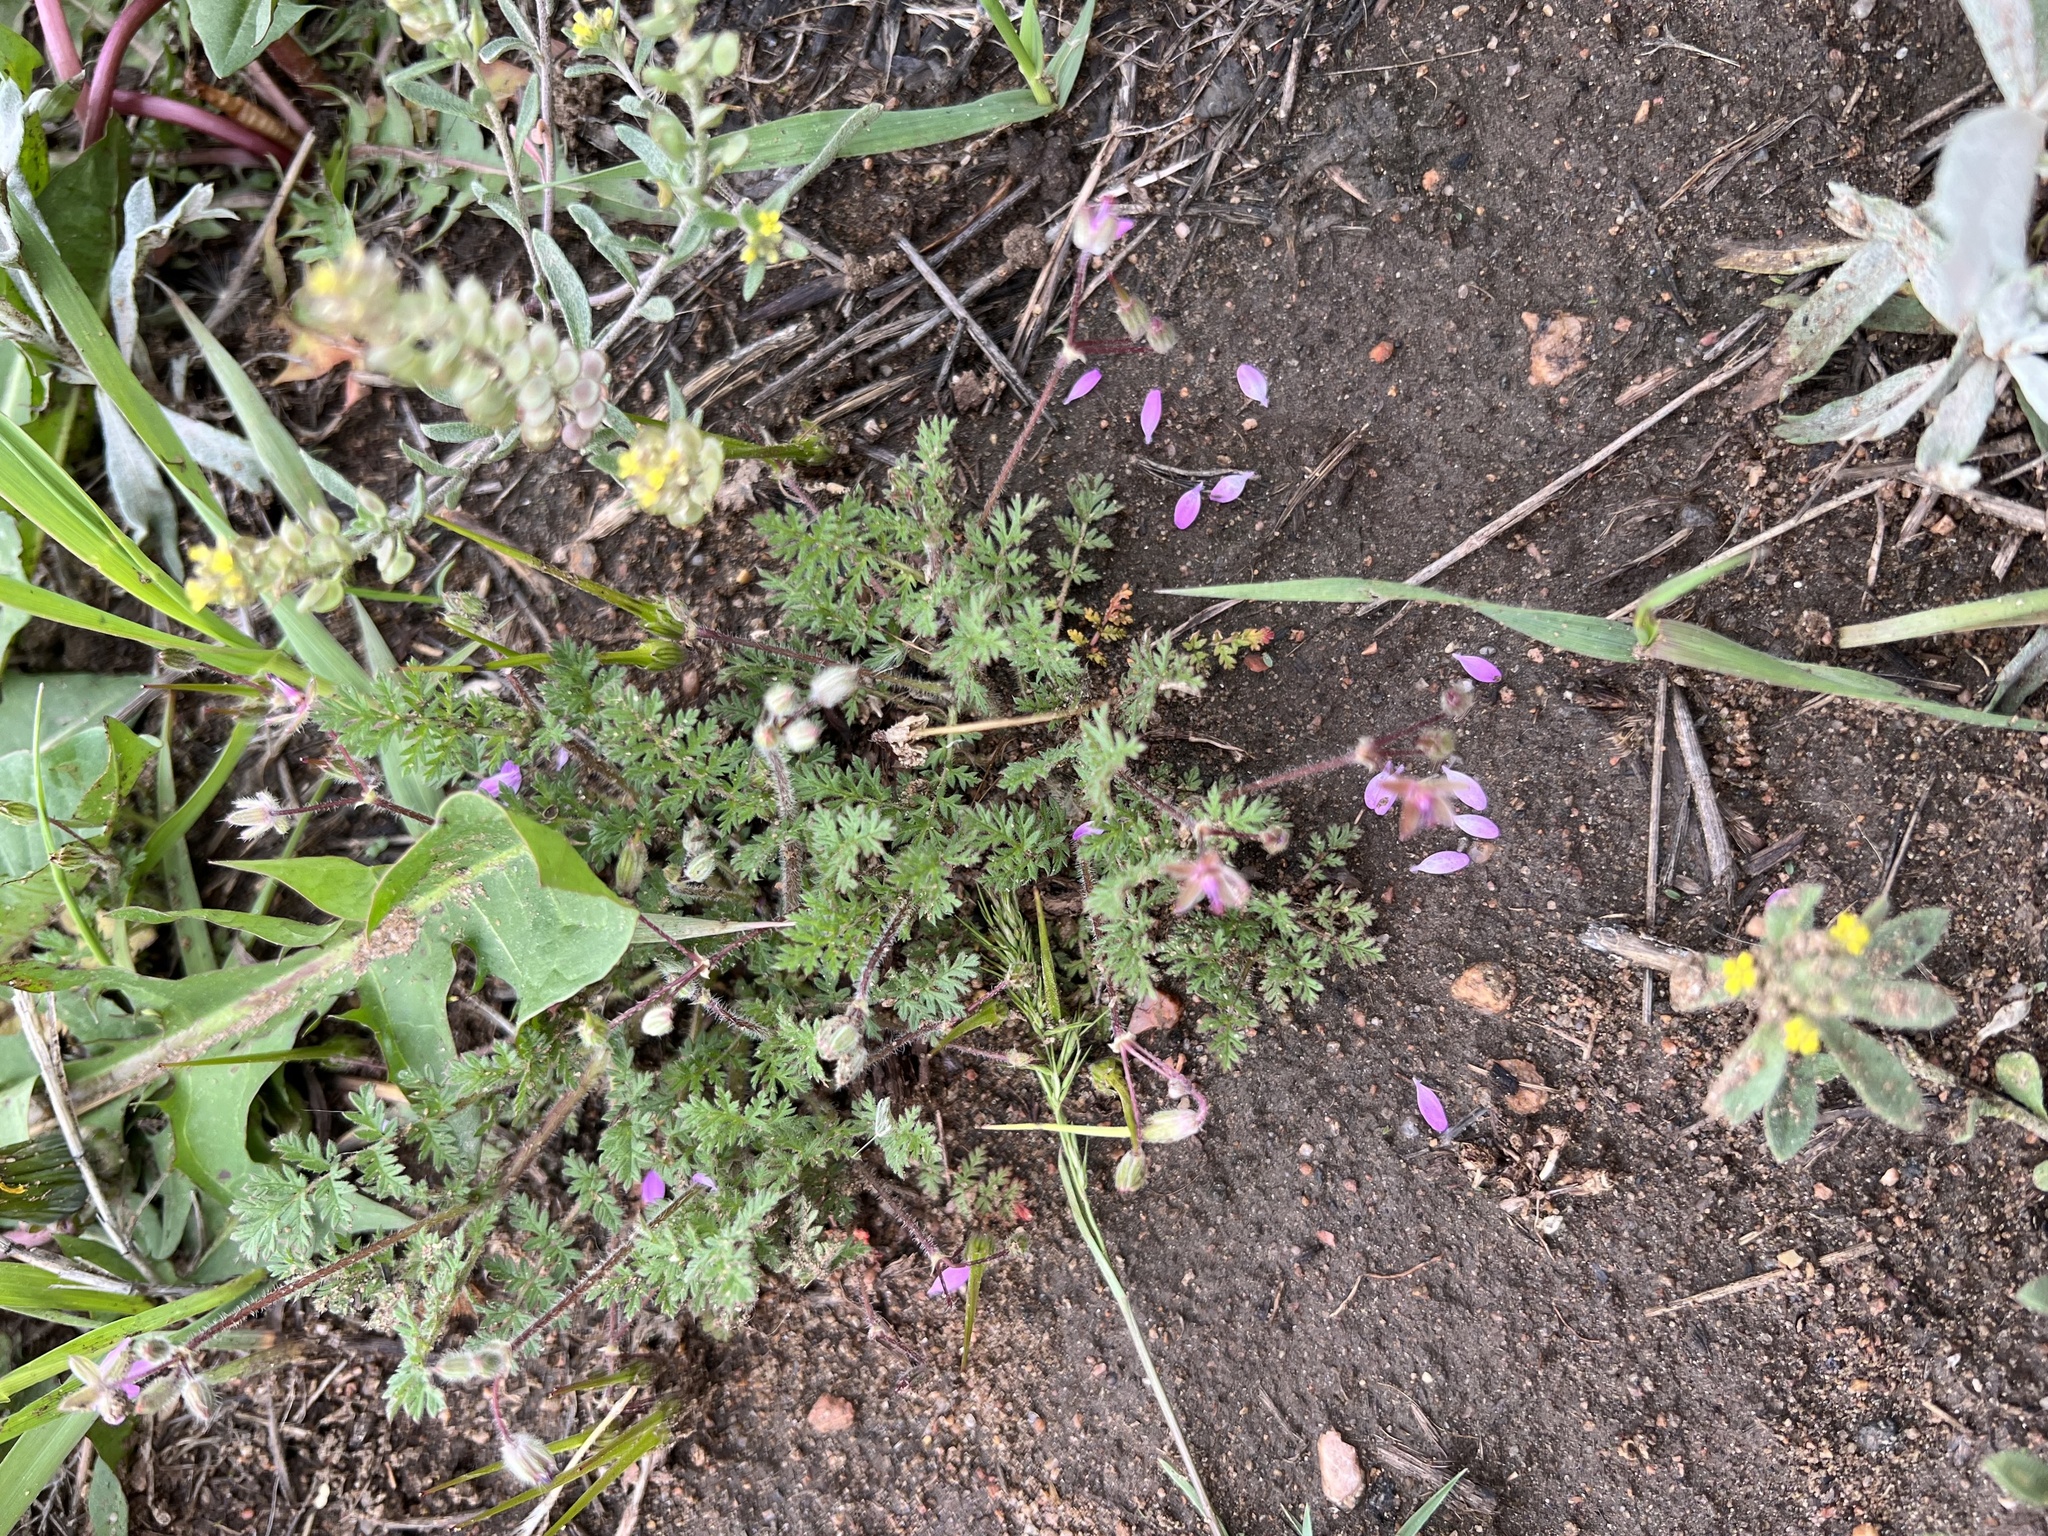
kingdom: Plantae
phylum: Tracheophyta
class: Magnoliopsida
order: Geraniales
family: Geraniaceae
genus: Erodium
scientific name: Erodium cicutarium
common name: Common stork's-bill
